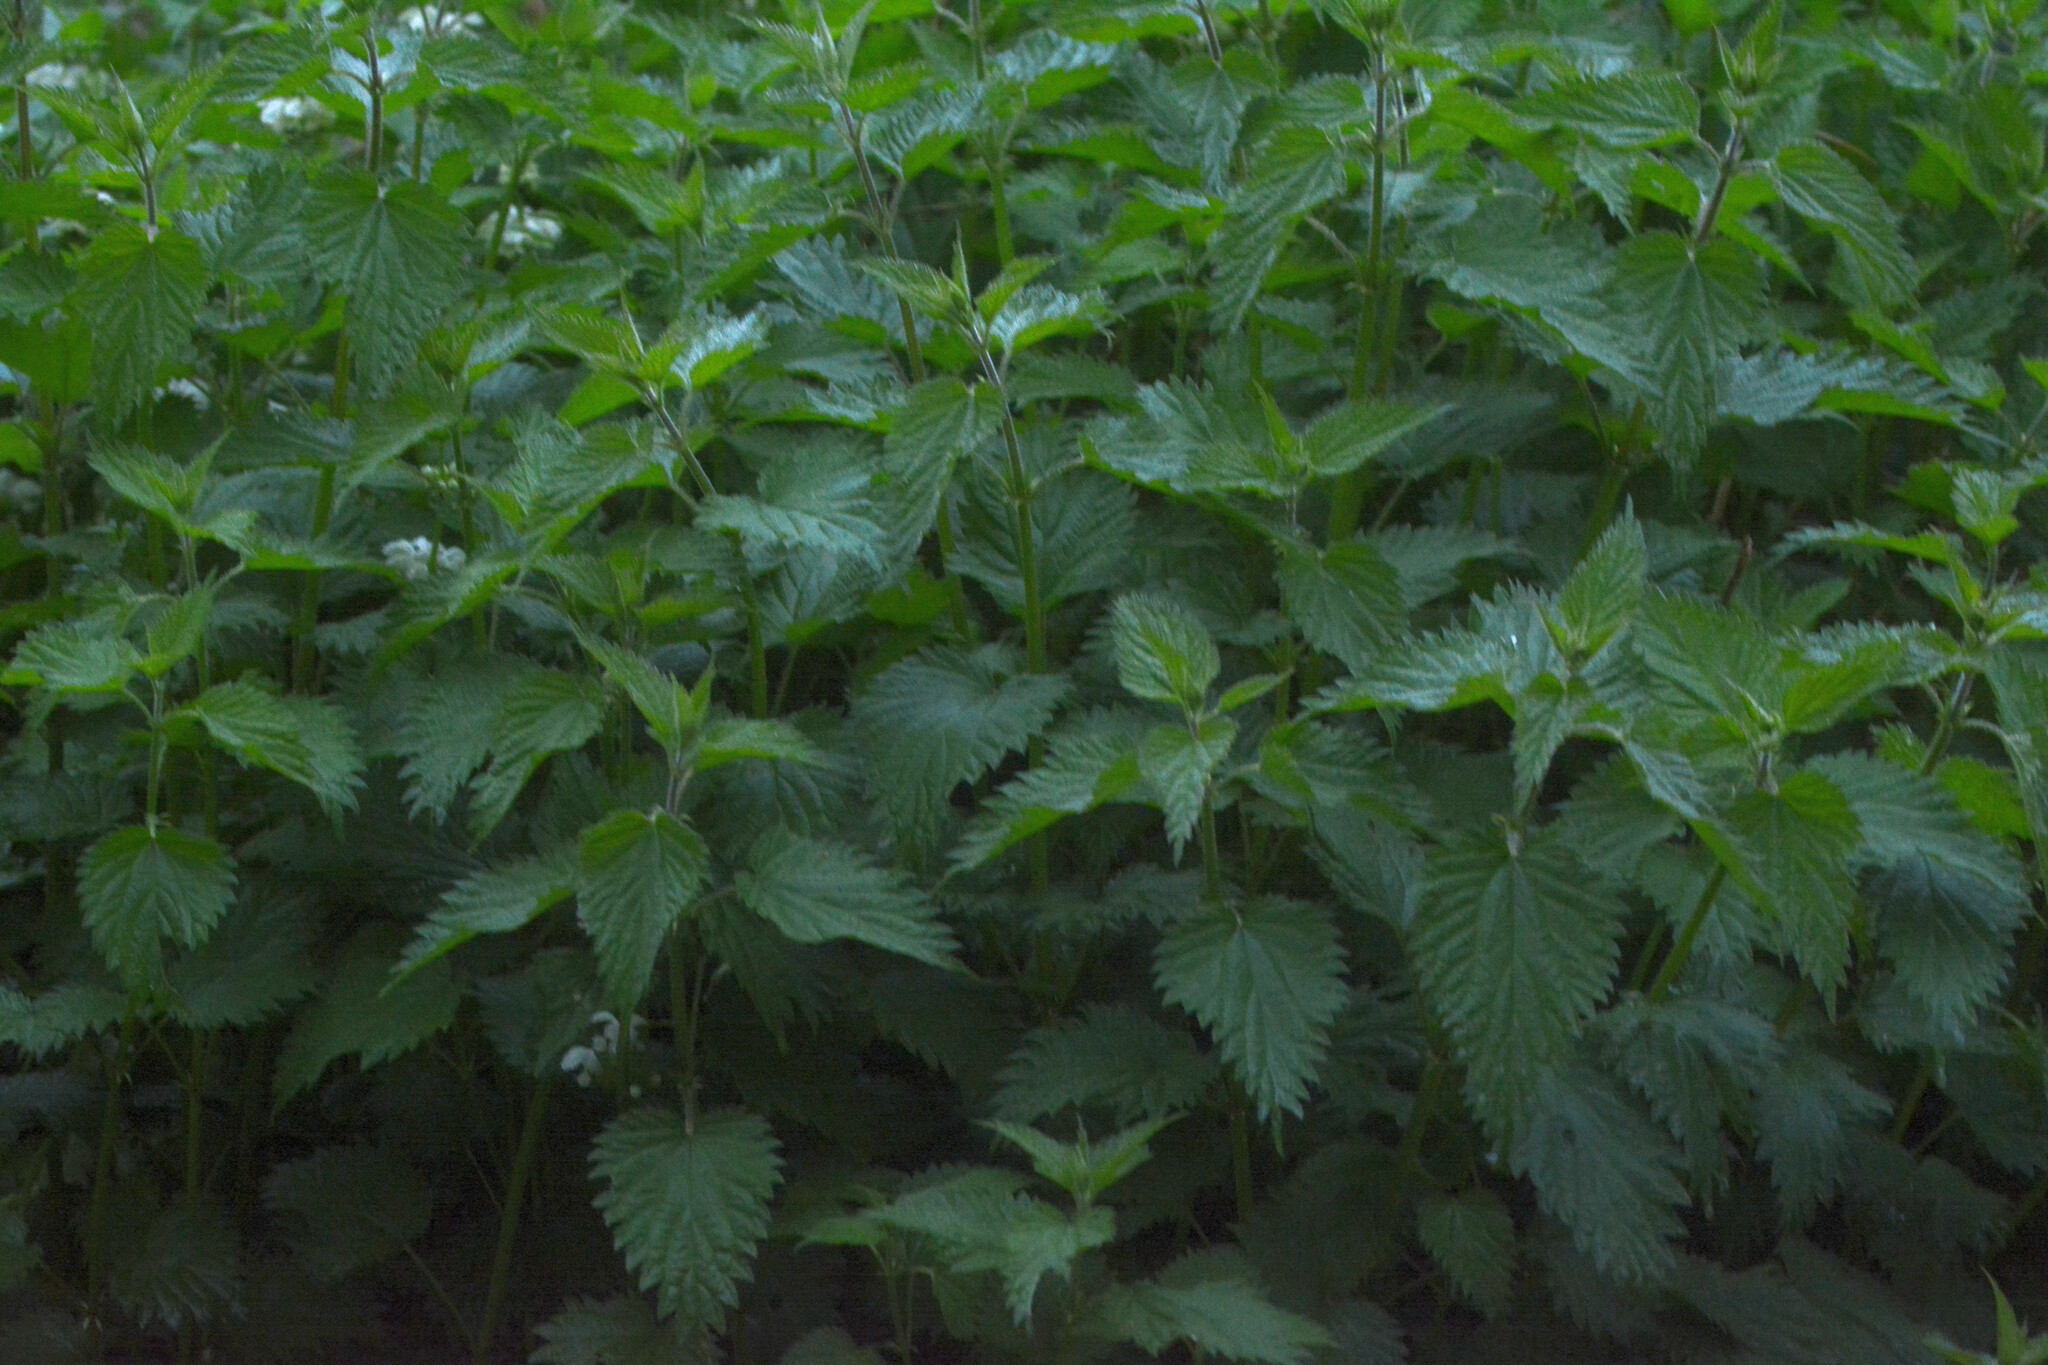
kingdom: Plantae
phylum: Tracheophyta
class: Magnoliopsida
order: Rosales
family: Urticaceae
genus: Urtica
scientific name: Urtica dioica
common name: Common nettle
